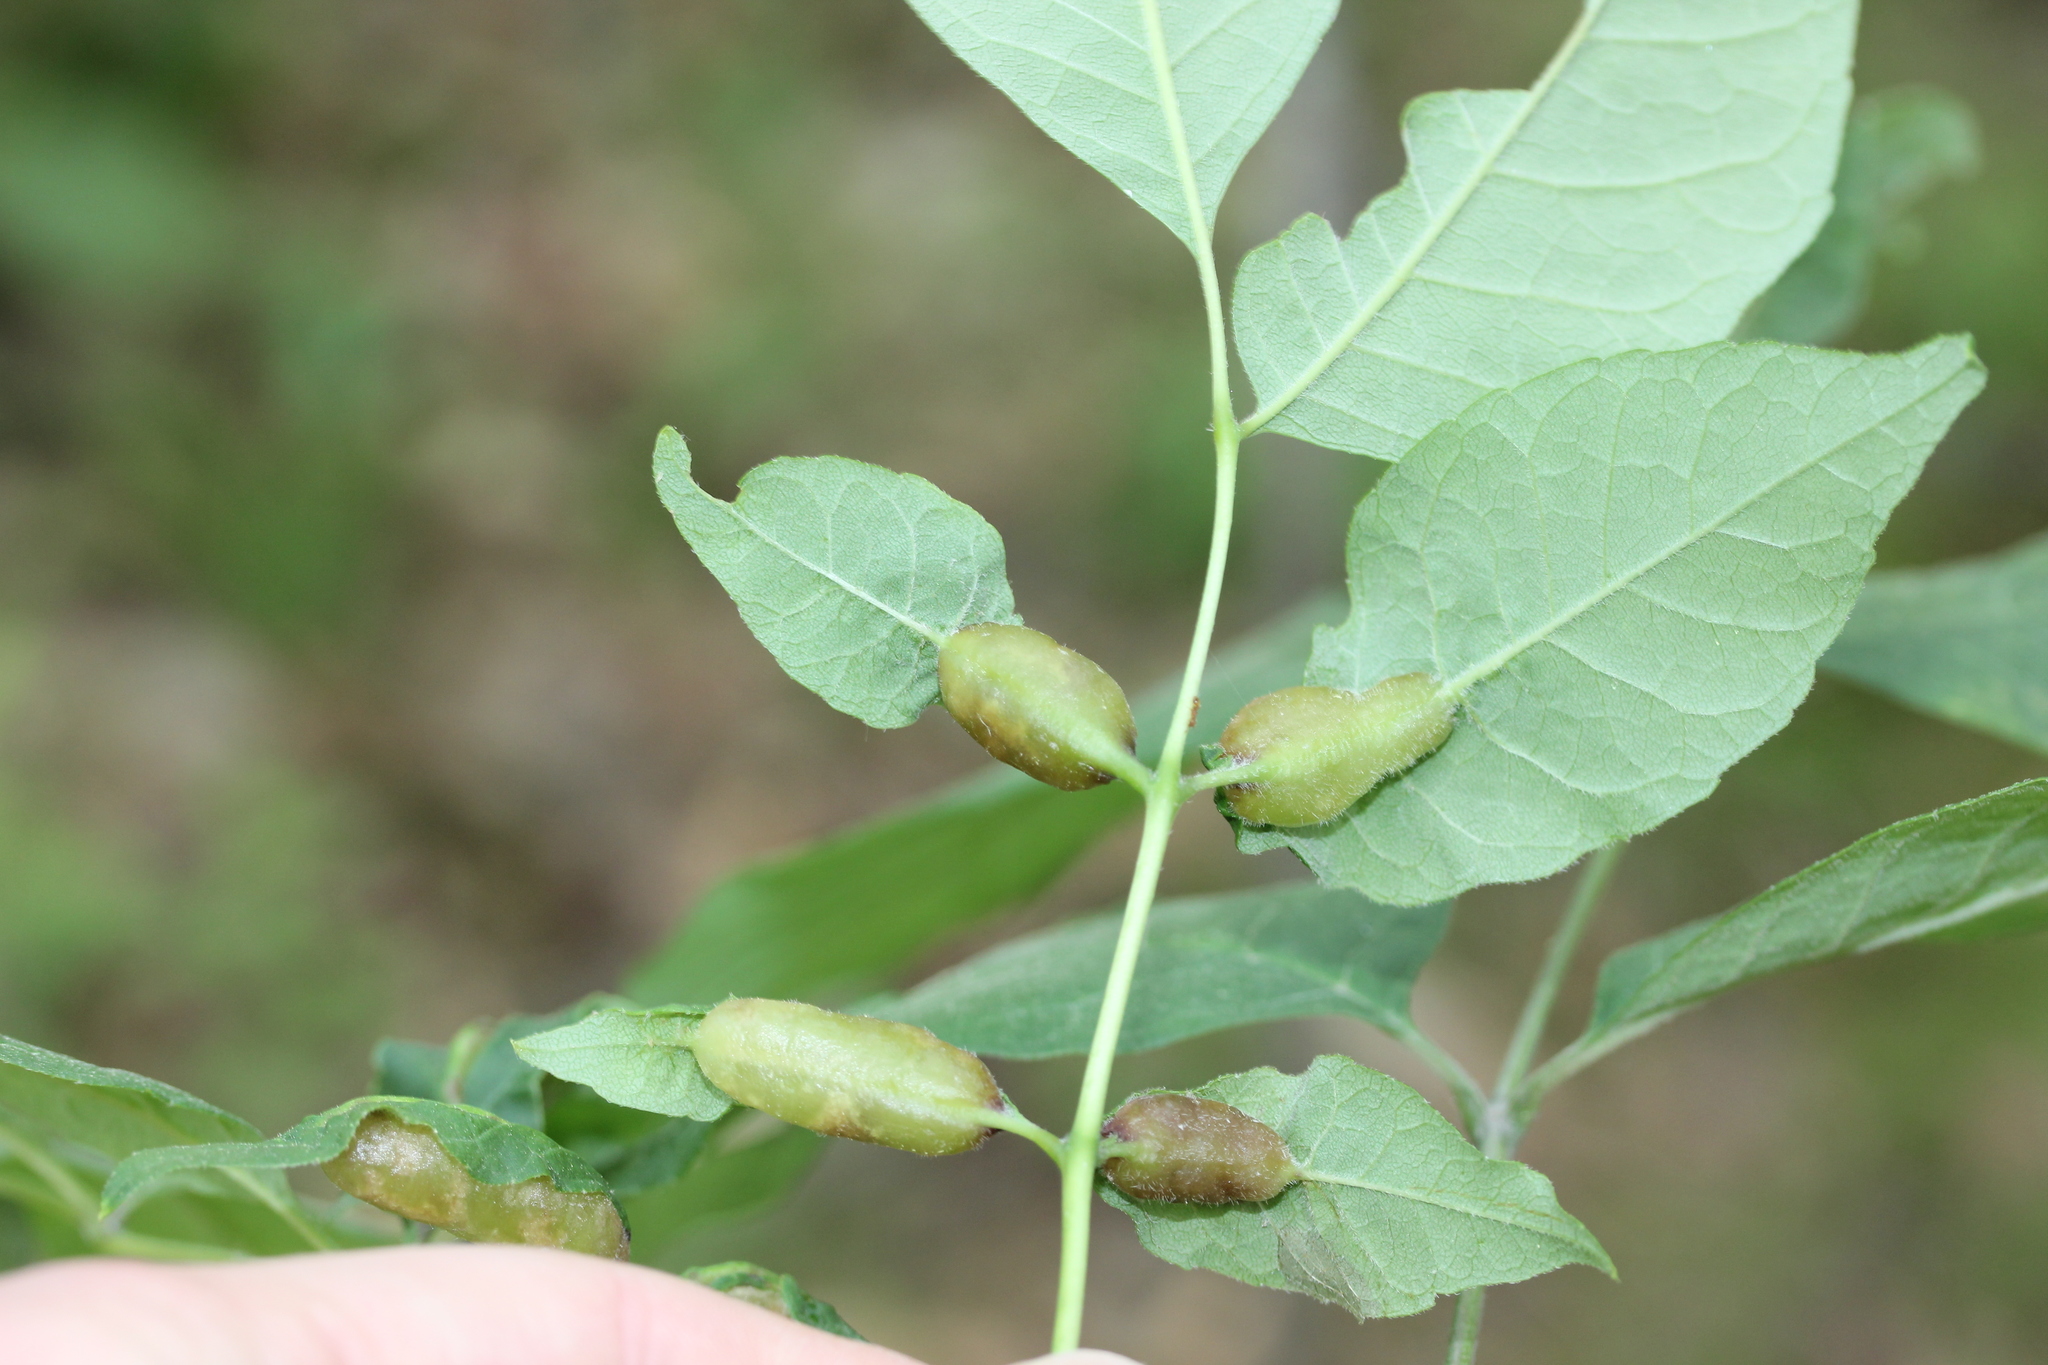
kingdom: Animalia
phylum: Arthropoda
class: Insecta
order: Diptera
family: Cecidomyiidae
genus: Dasineura
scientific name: Dasineura tumidosae
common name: Ash petiole gall midge
